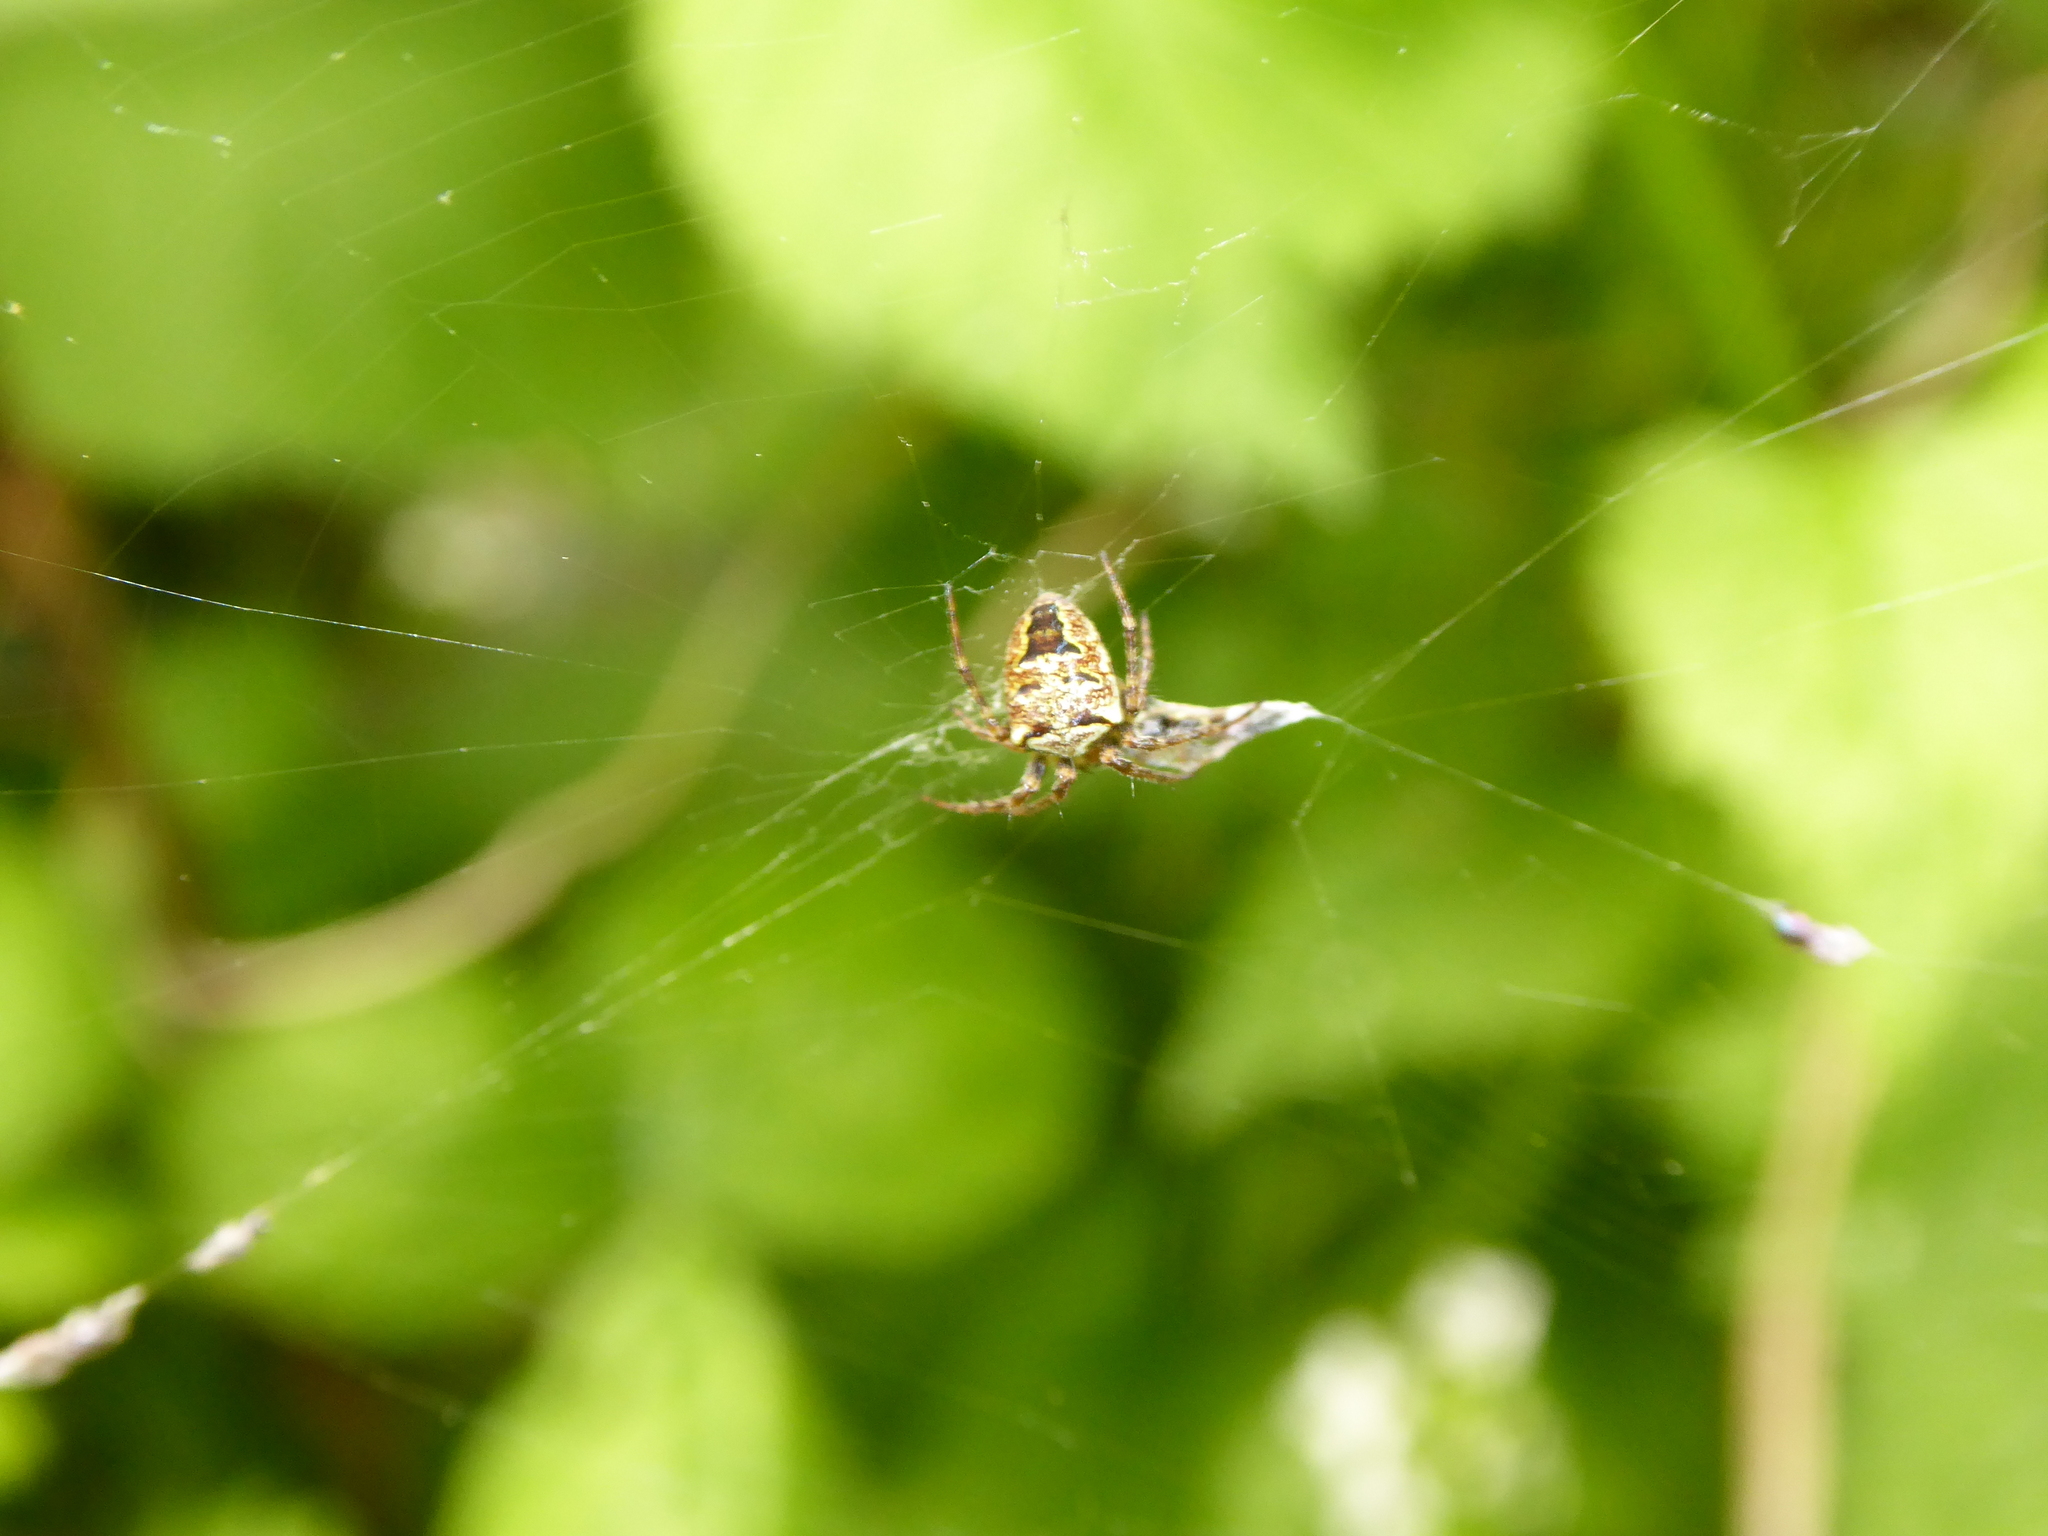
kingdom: Animalia
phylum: Arthropoda
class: Arachnida
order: Araneae
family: Araneidae
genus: Zilla
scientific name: Zilla diodia
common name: Zilla diodia
